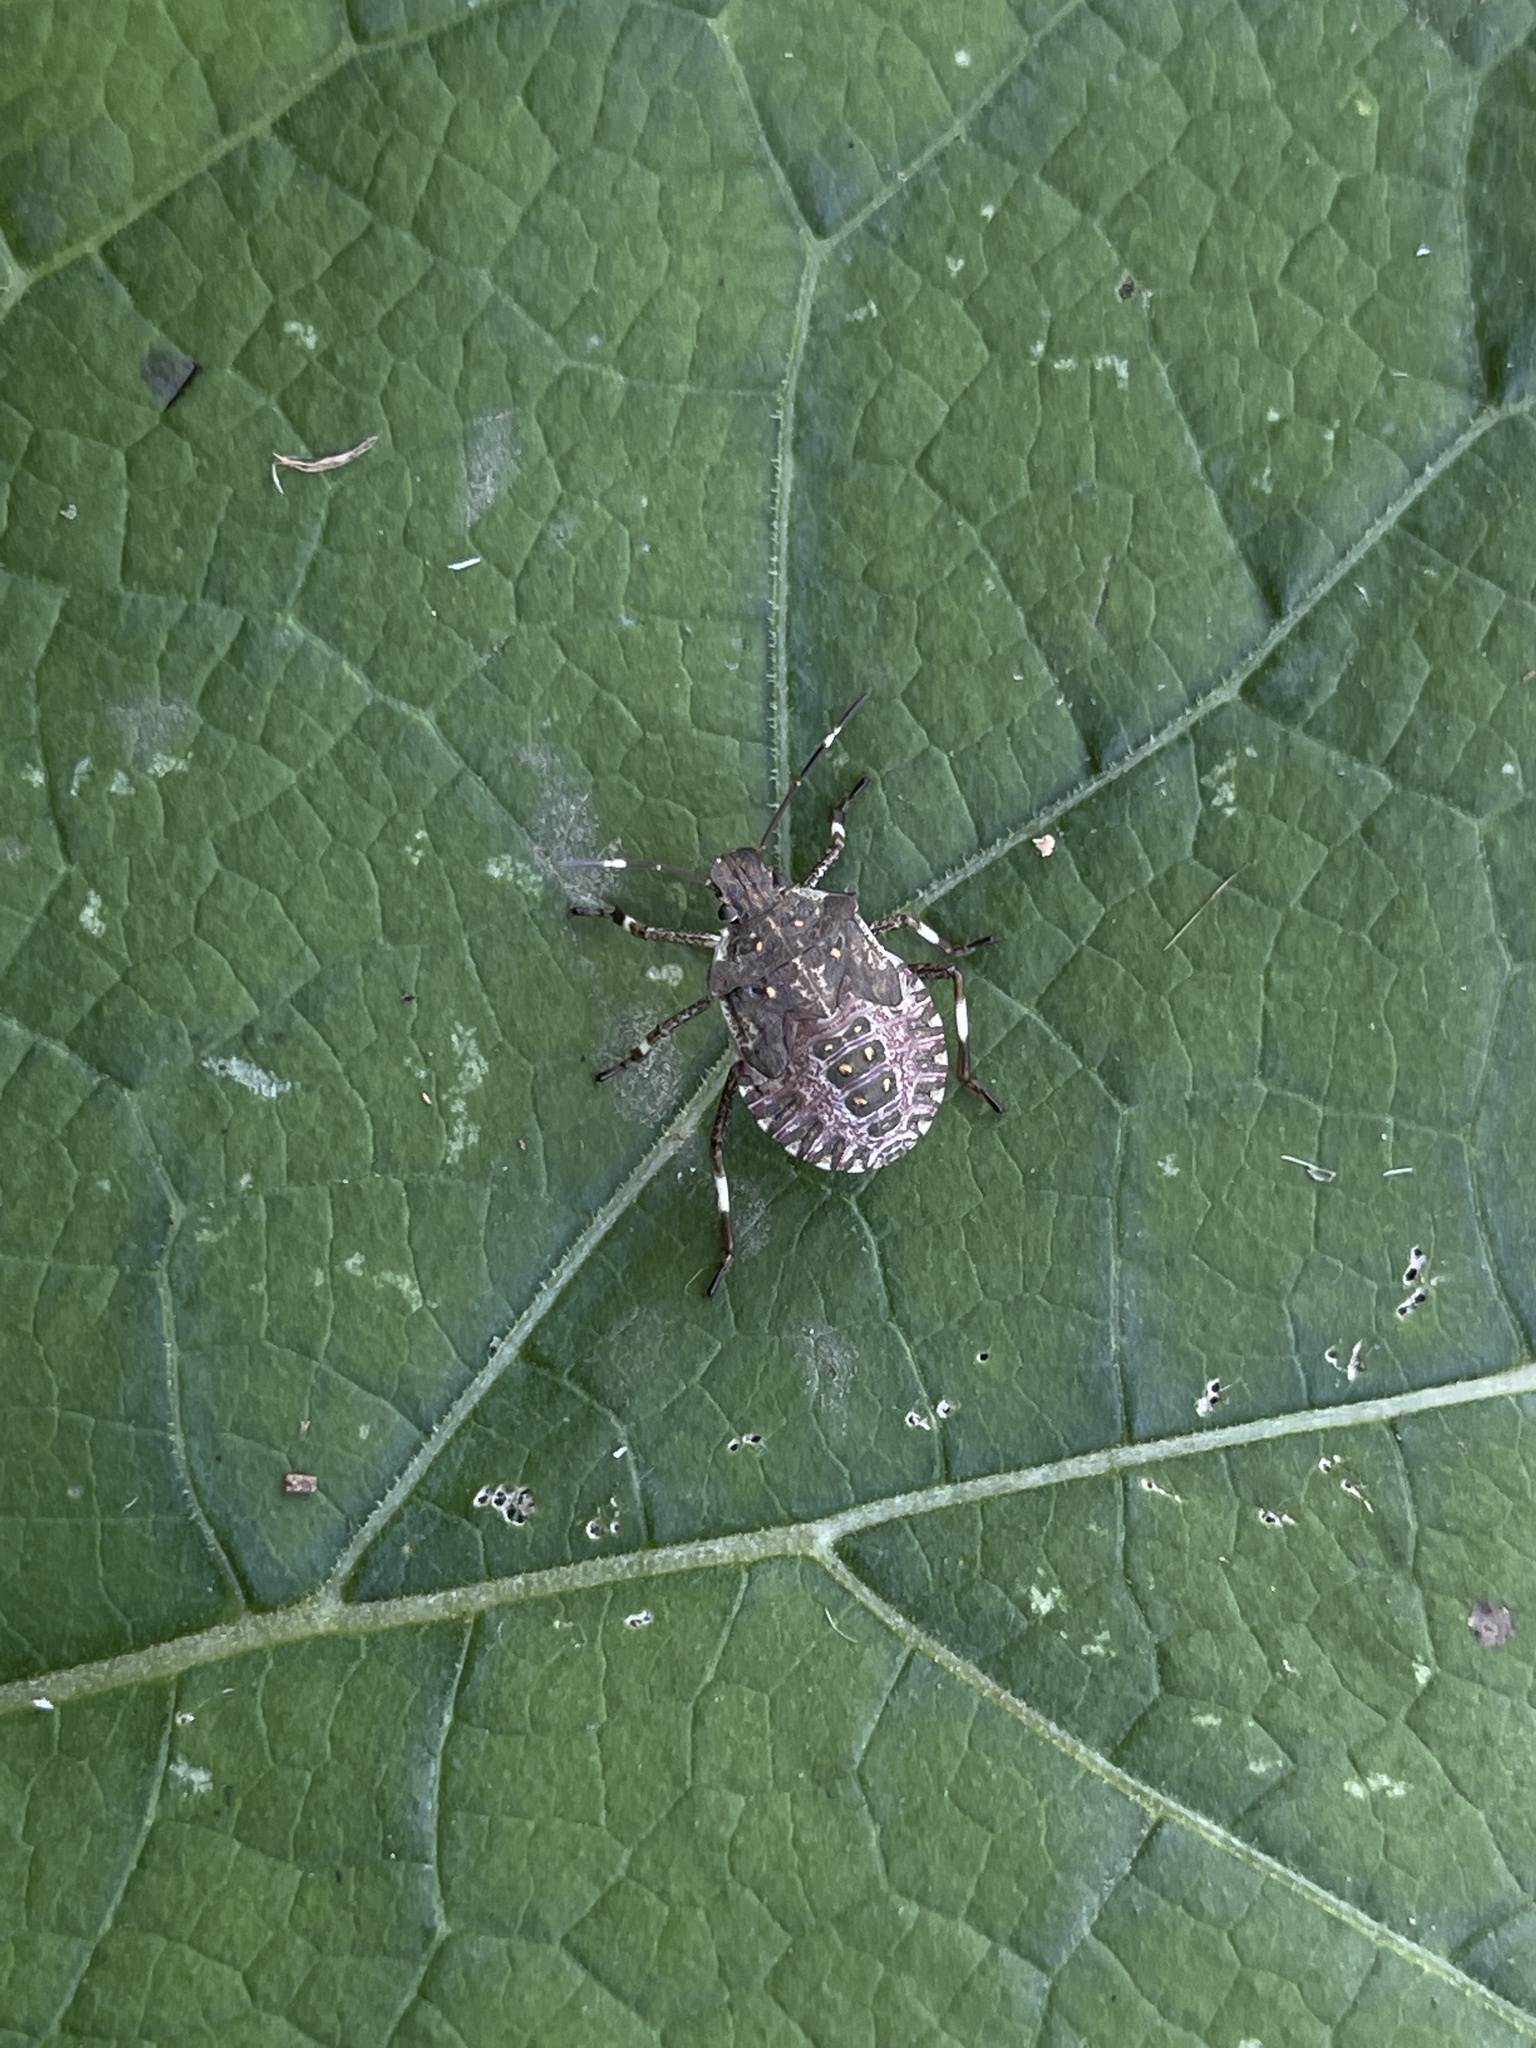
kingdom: Animalia
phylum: Arthropoda
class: Insecta
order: Hemiptera
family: Pentatomidae
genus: Halyomorpha
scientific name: Halyomorpha halys
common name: Brown marmorated stink bug
